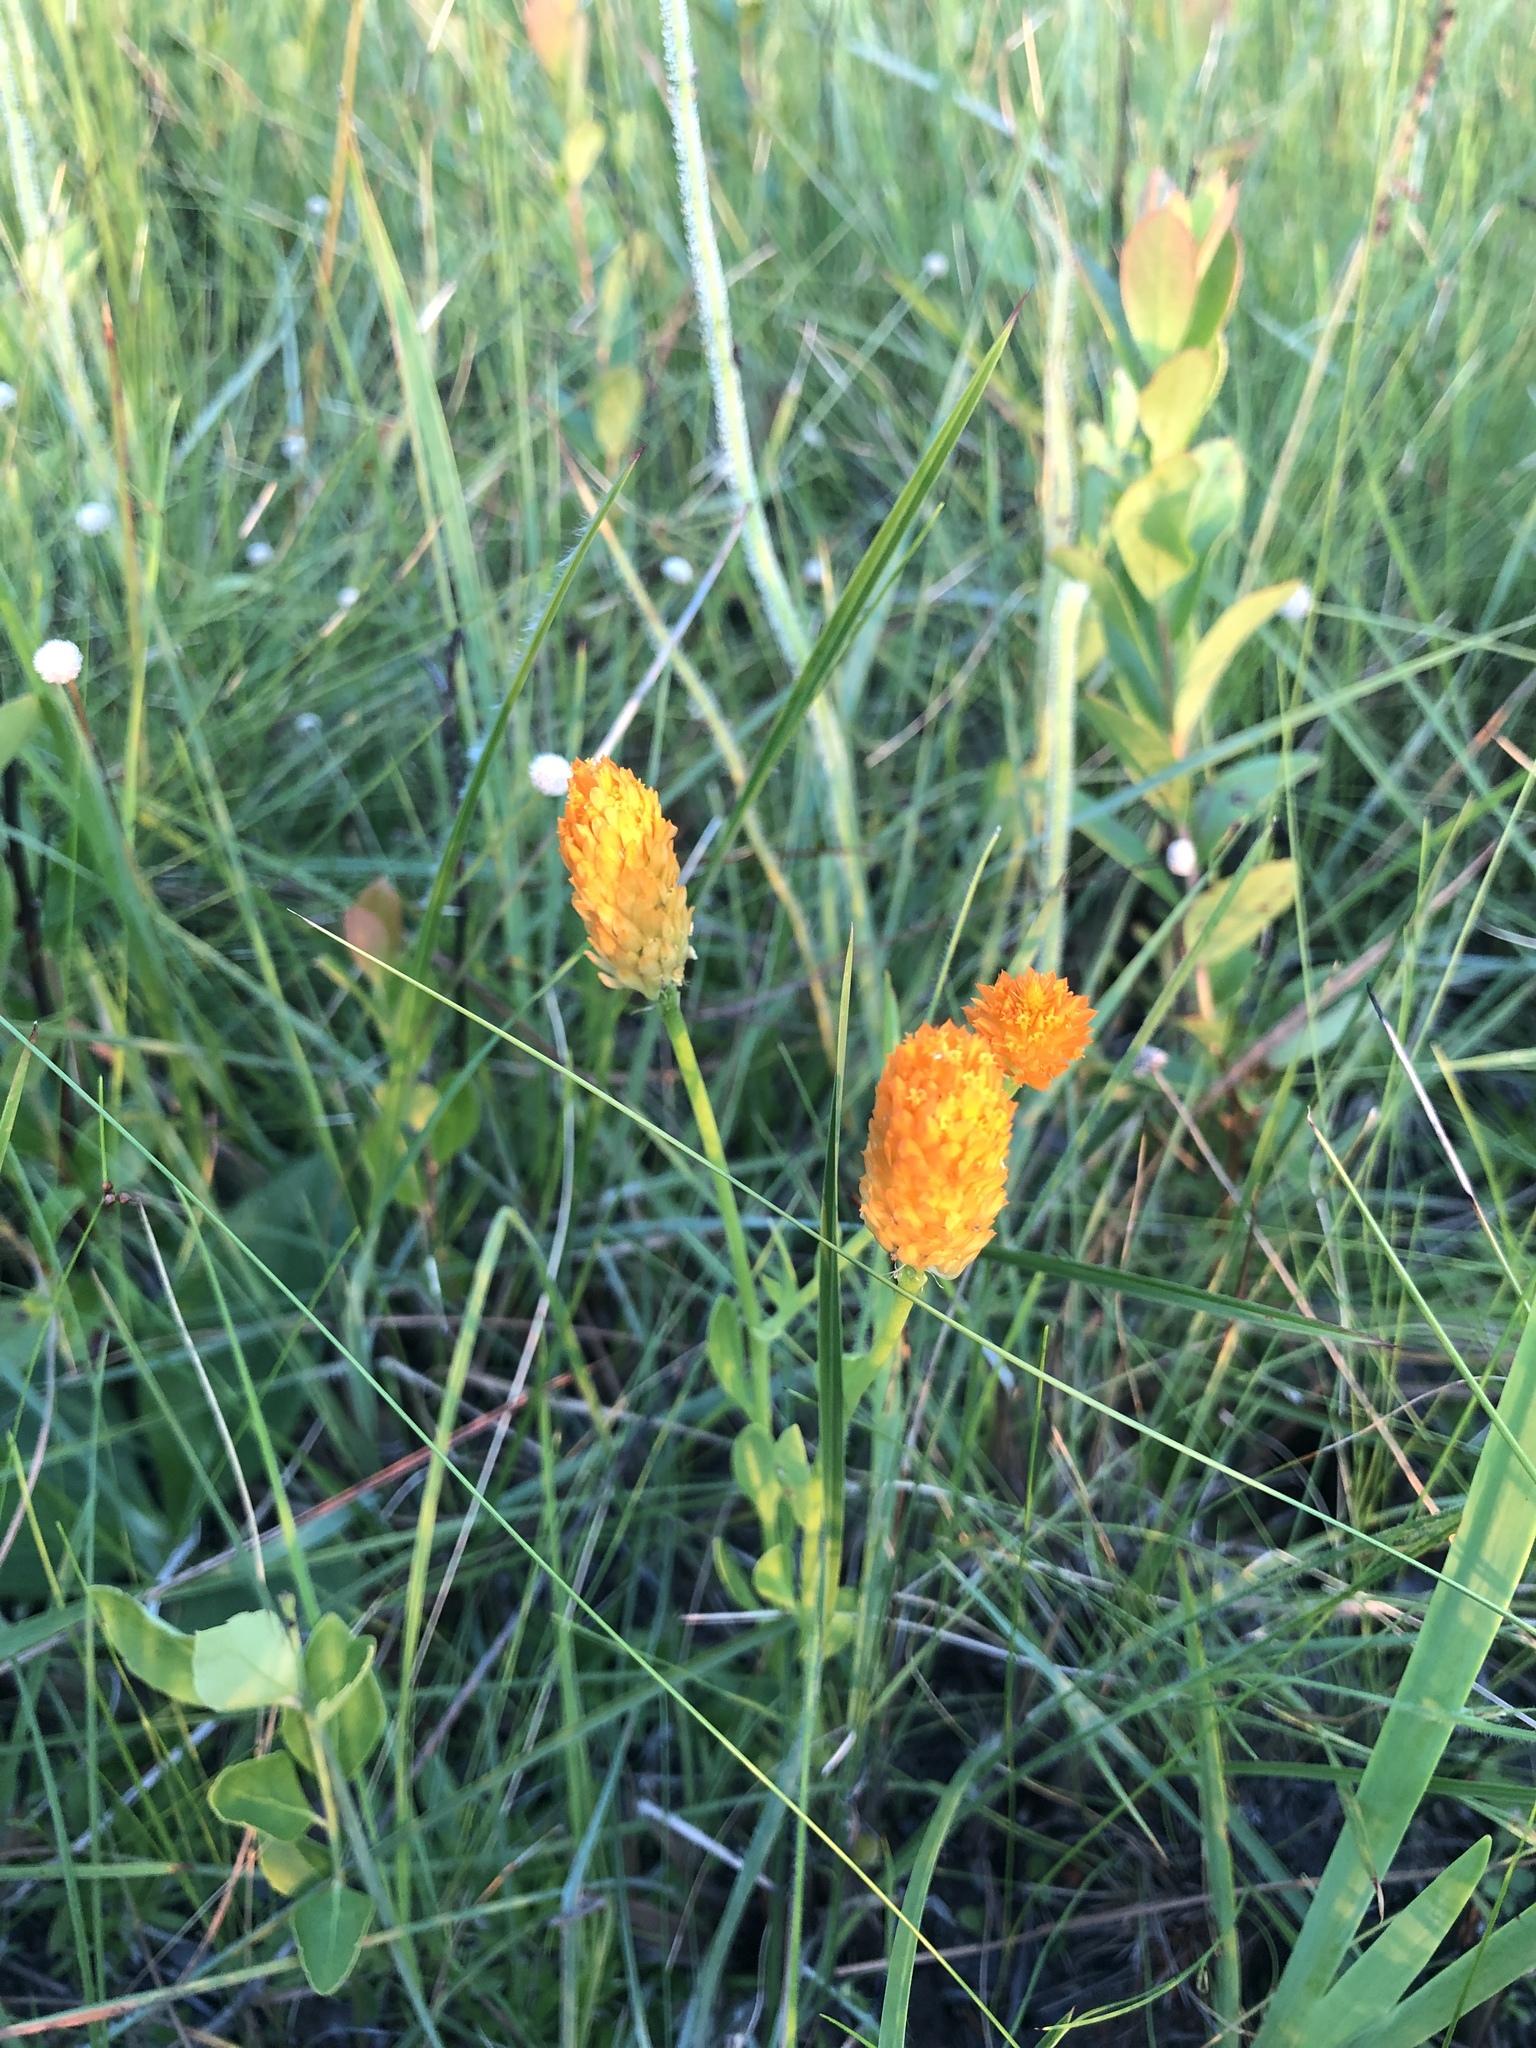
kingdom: Plantae
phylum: Tracheophyta
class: Magnoliopsida
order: Fabales
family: Polygalaceae
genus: Polygala
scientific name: Polygala lutea
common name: Orange milkwort
